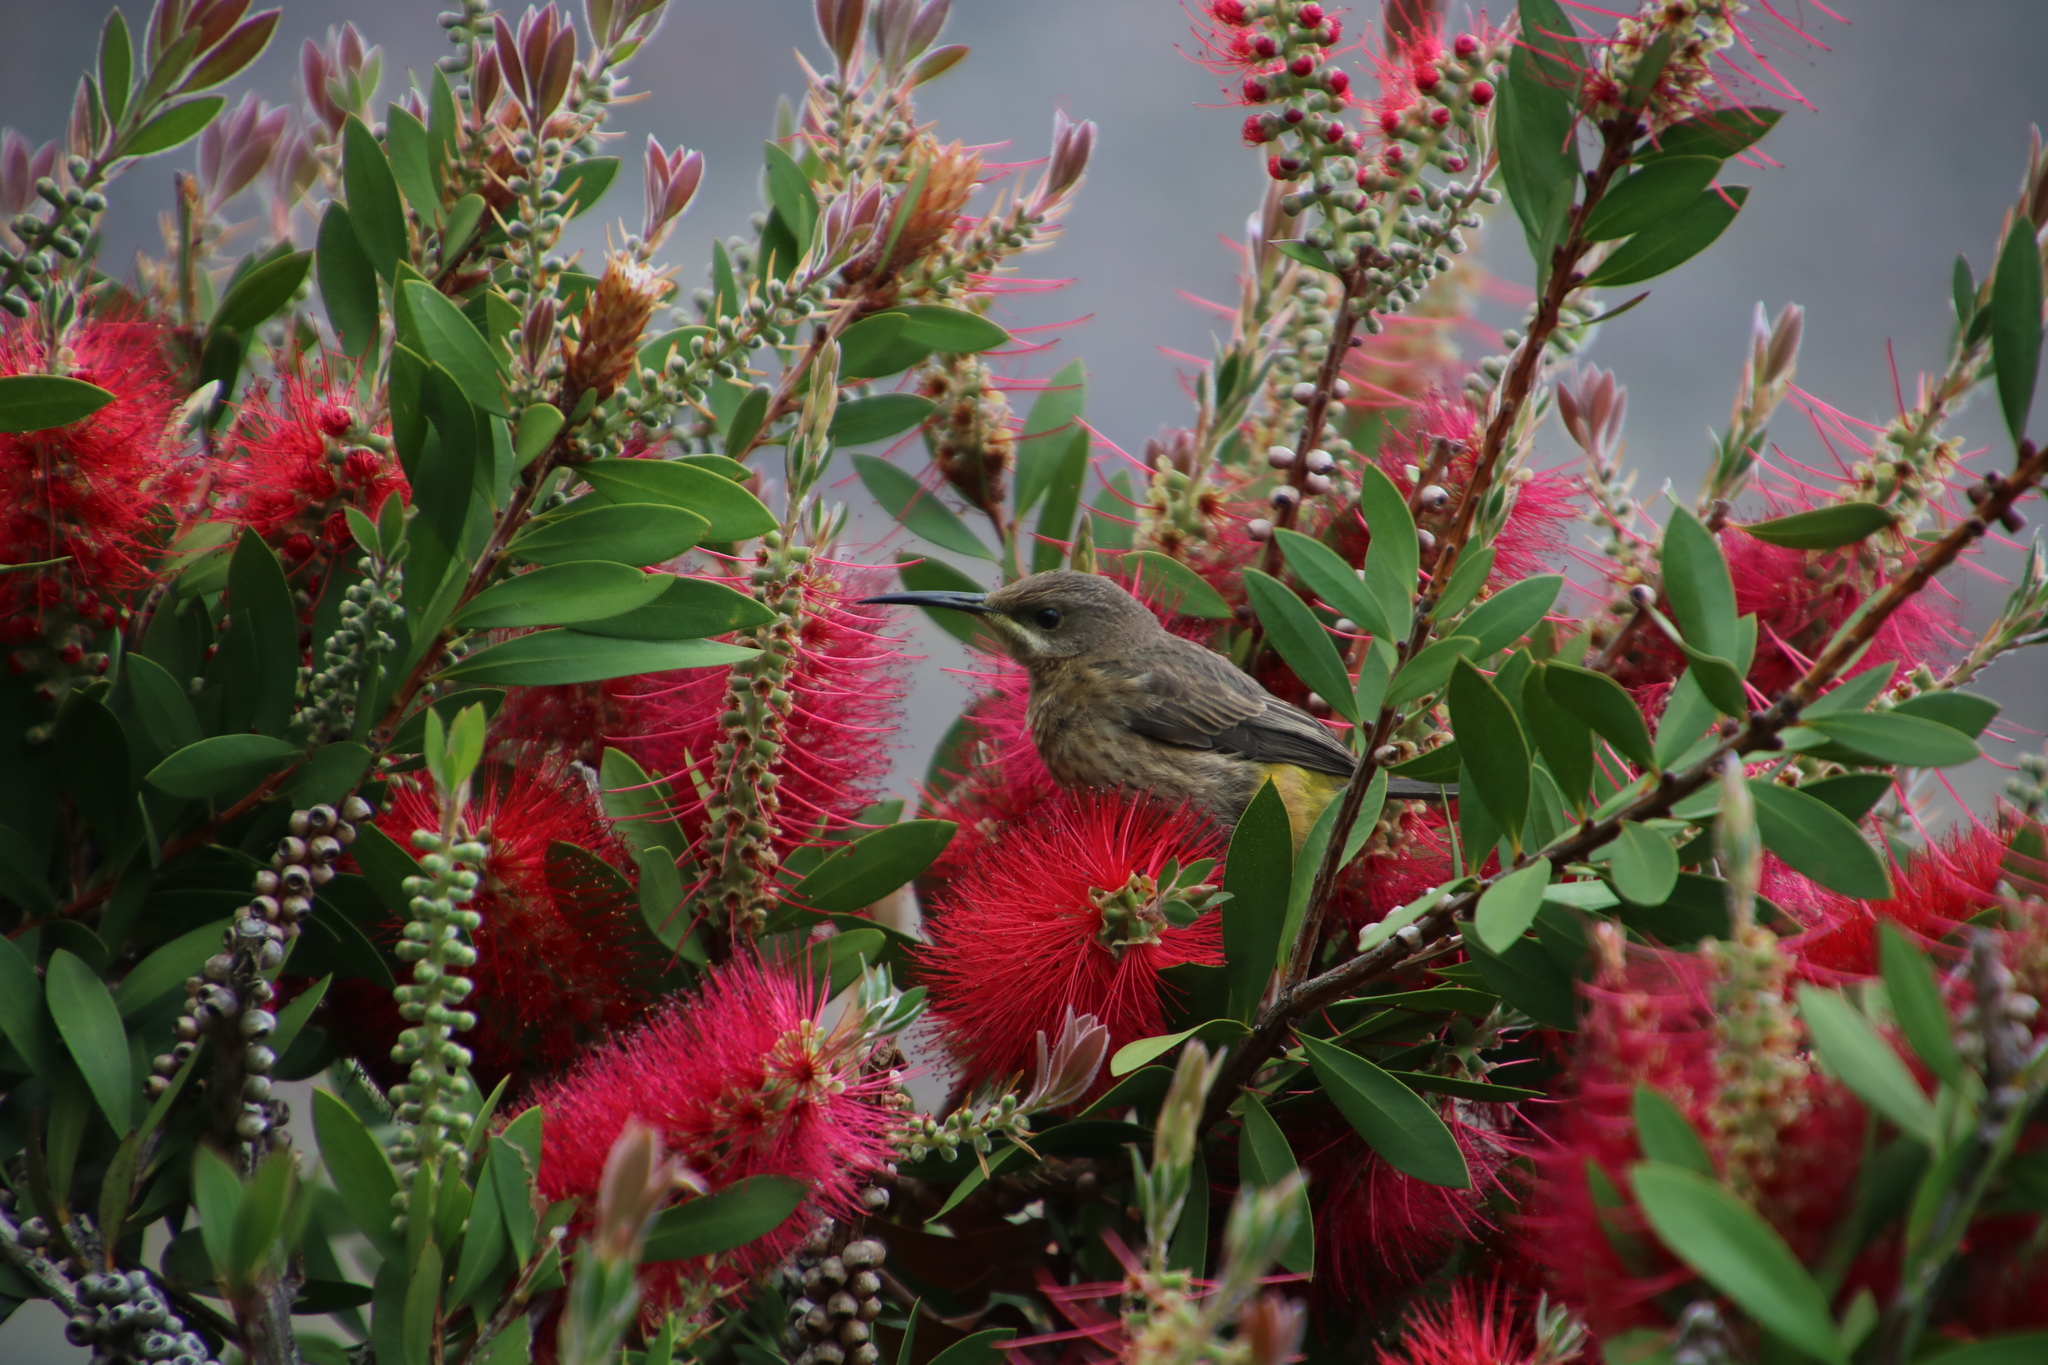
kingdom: Animalia
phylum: Chordata
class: Aves
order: Passeriformes
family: Promeropidae
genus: Promerops
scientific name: Promerops cafer
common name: Cape sugarbird
